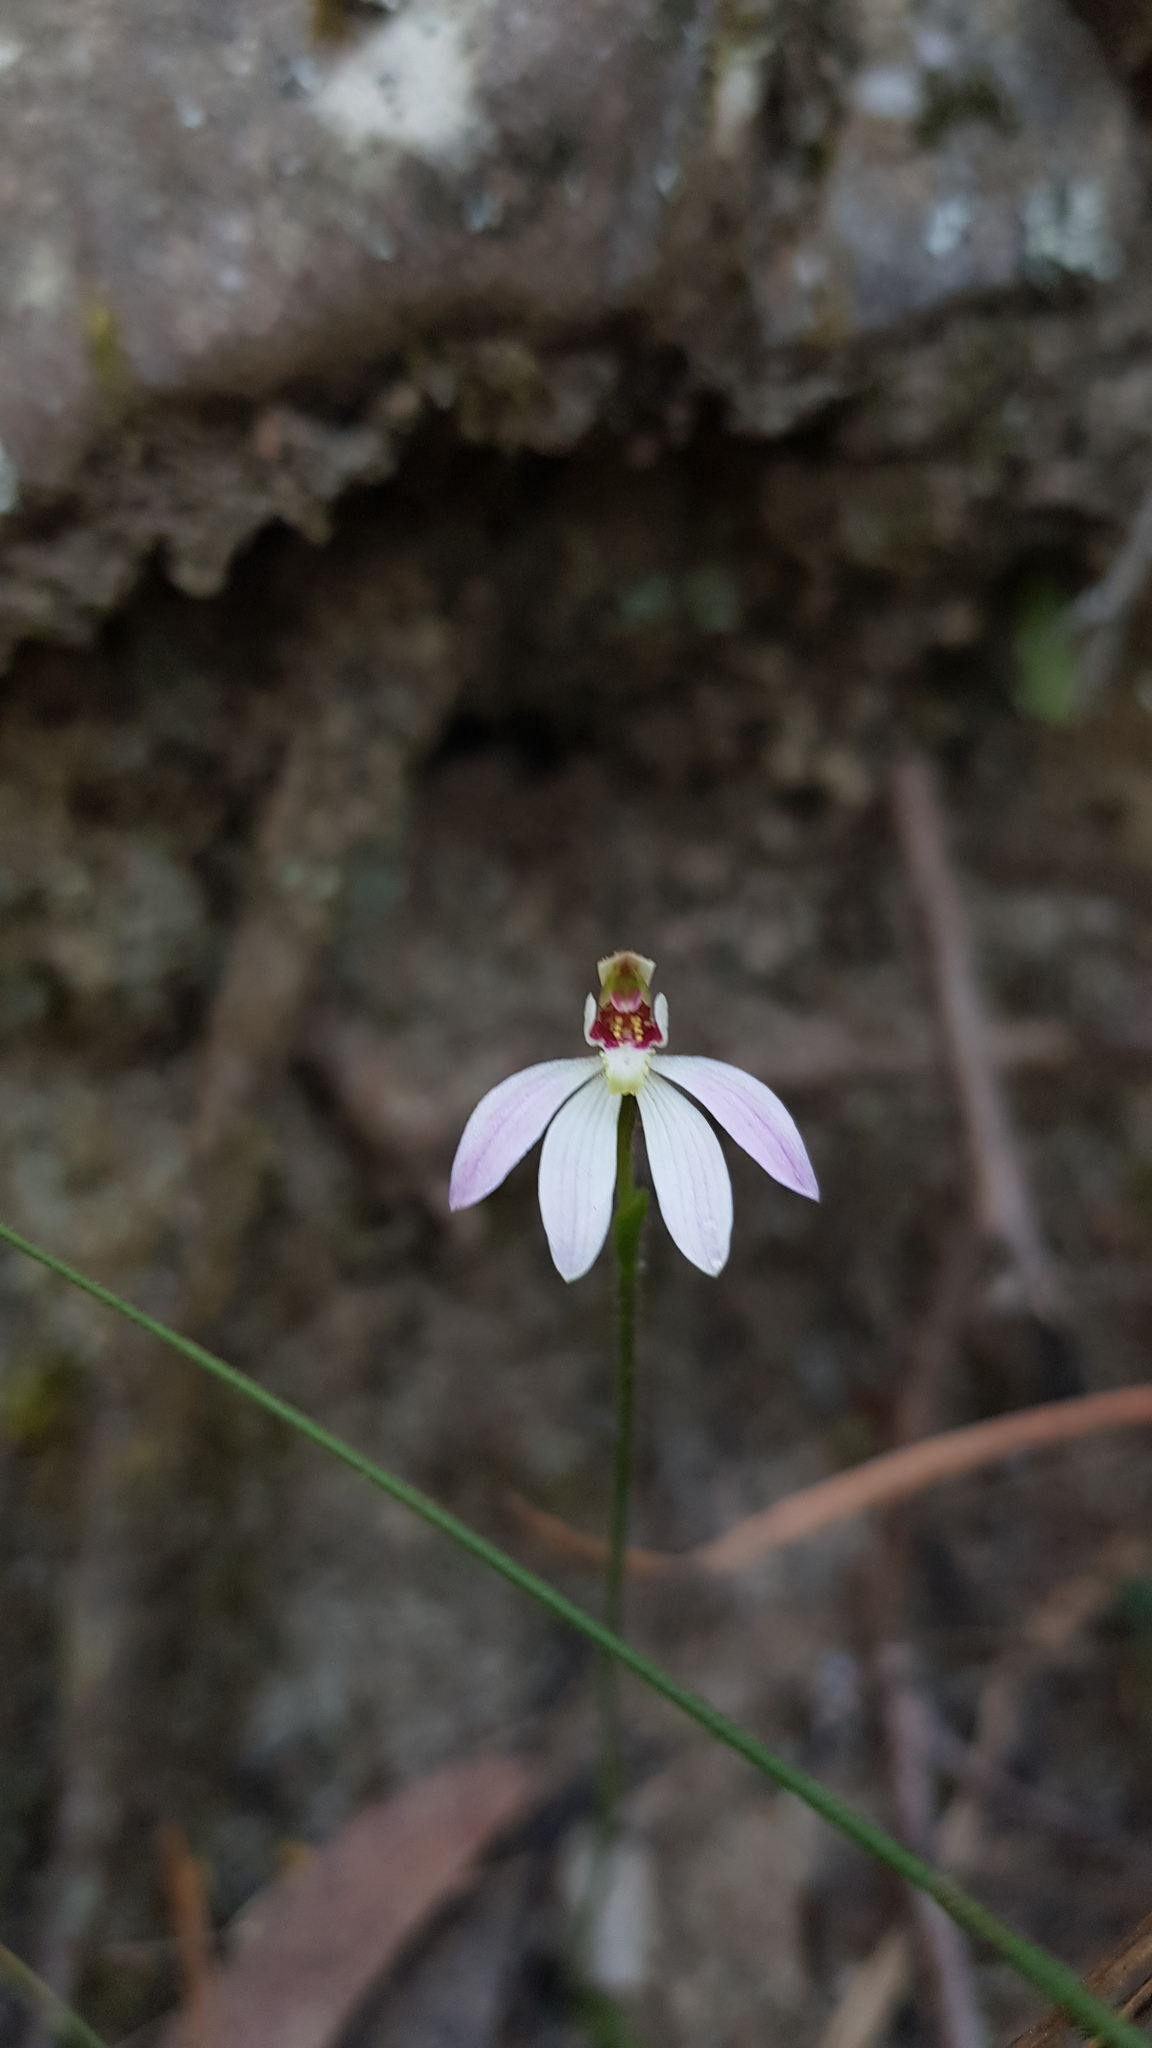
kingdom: Plantae
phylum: Tracheophyta
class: Liliopsida
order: Asparagales
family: Orchidaceae
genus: Caladenia
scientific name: Caladenia carnea
